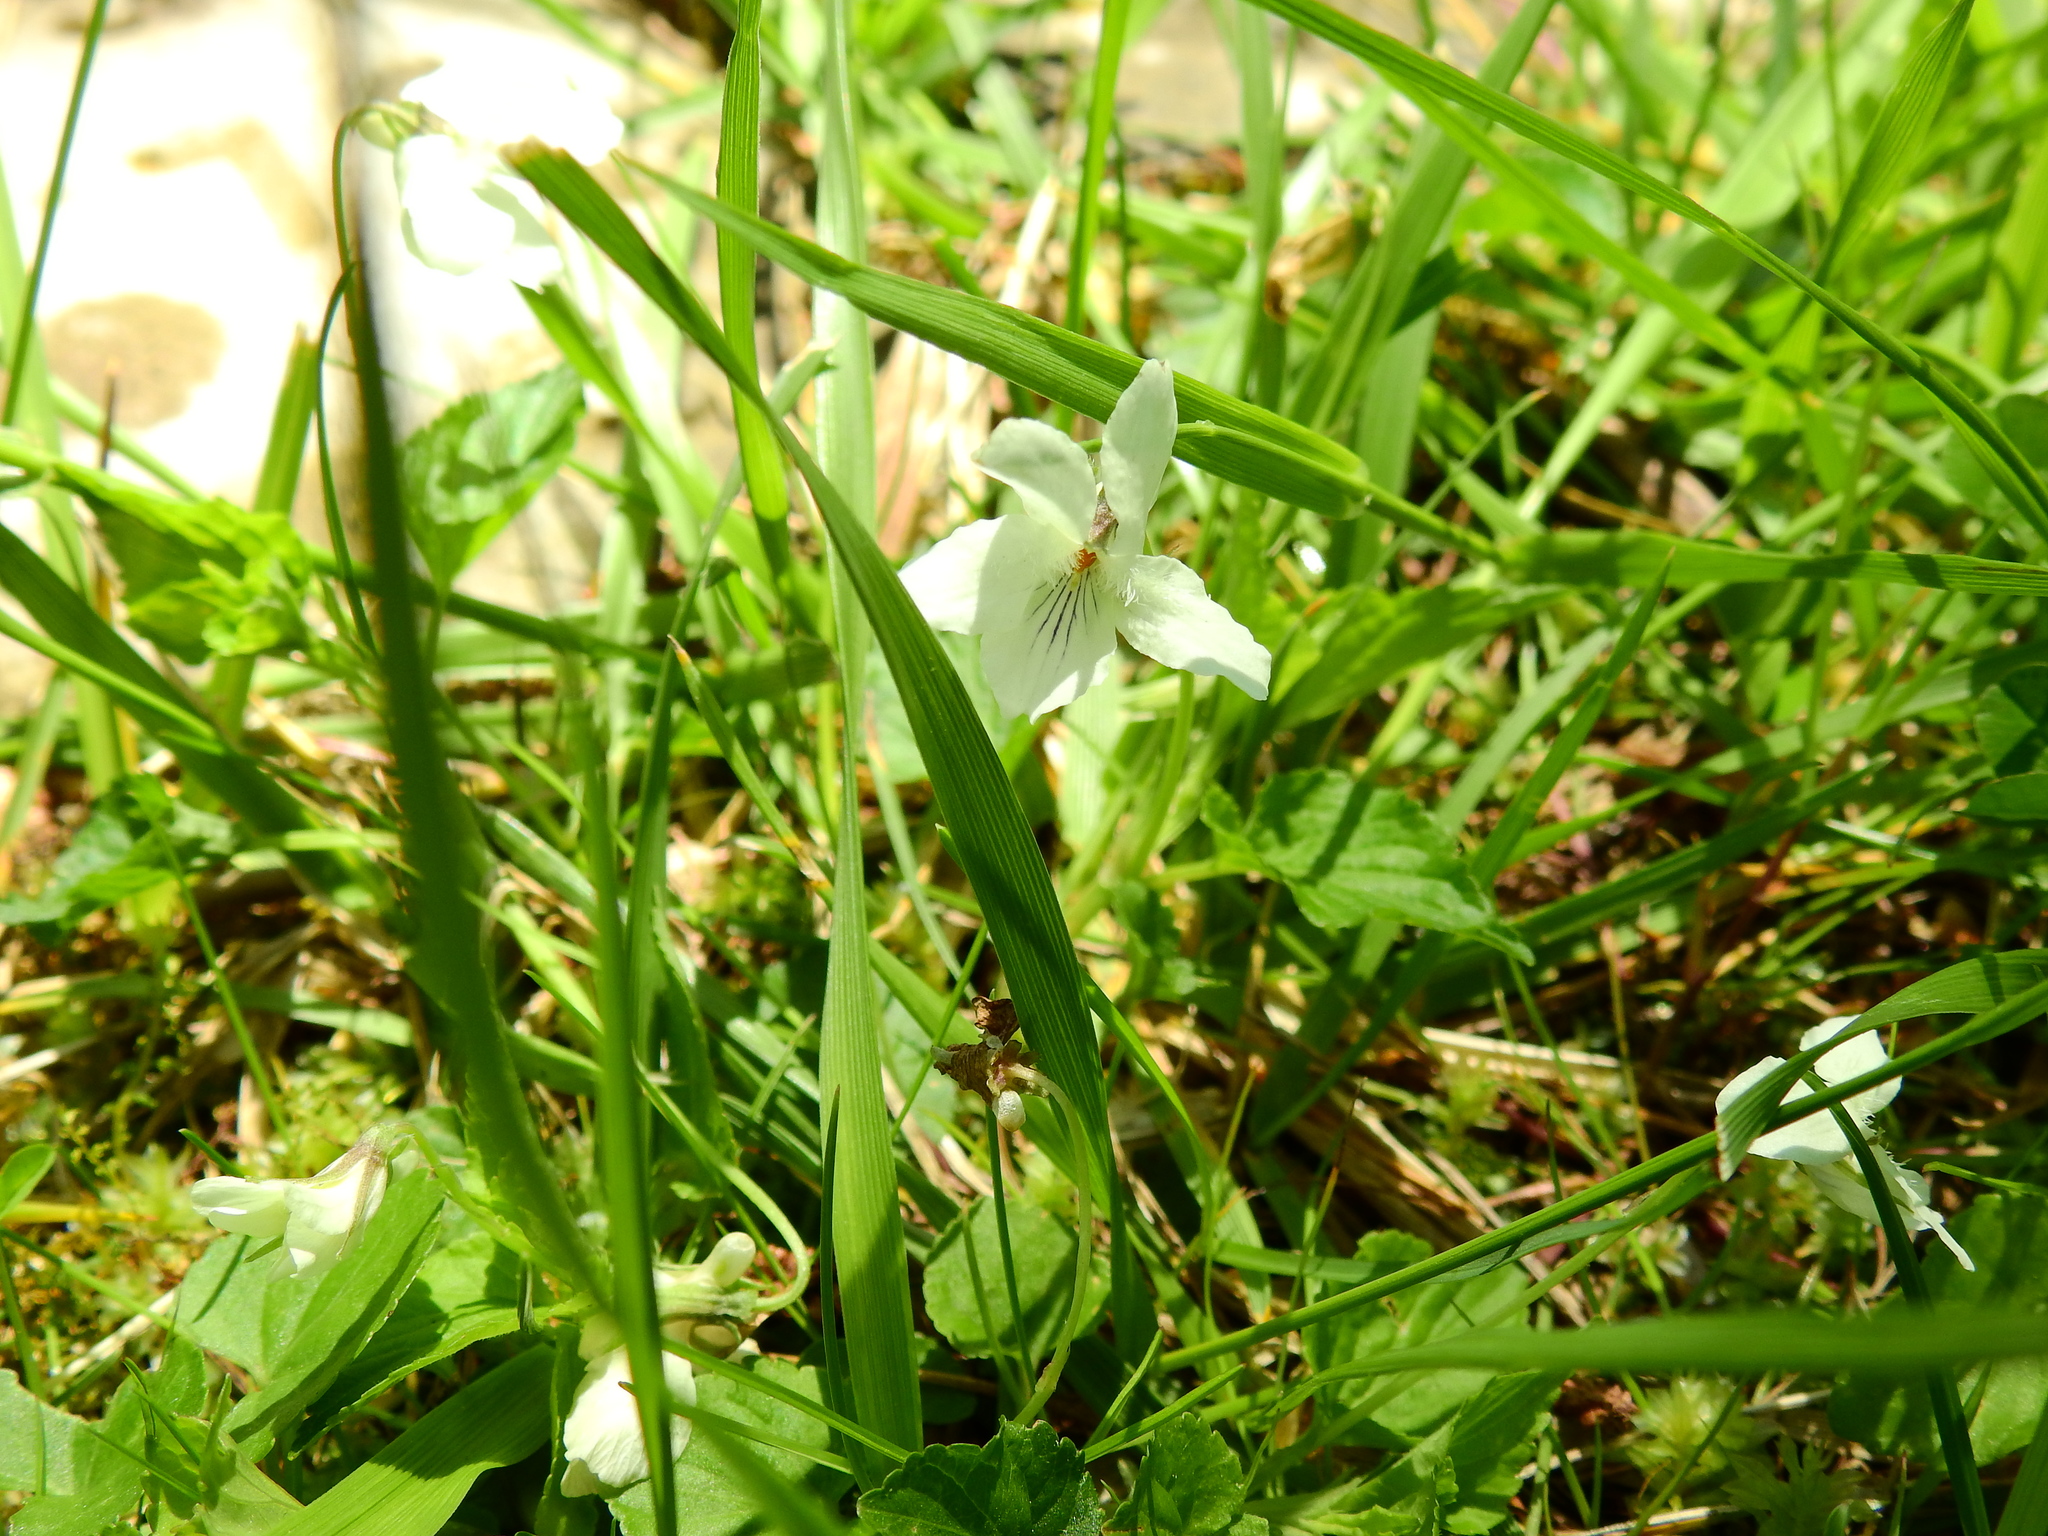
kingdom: Plantae
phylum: Tracheophyta
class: Magnoliopsida
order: Malpighiales
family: Violaceae
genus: Viola
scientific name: Viola striata
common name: Cream violet
